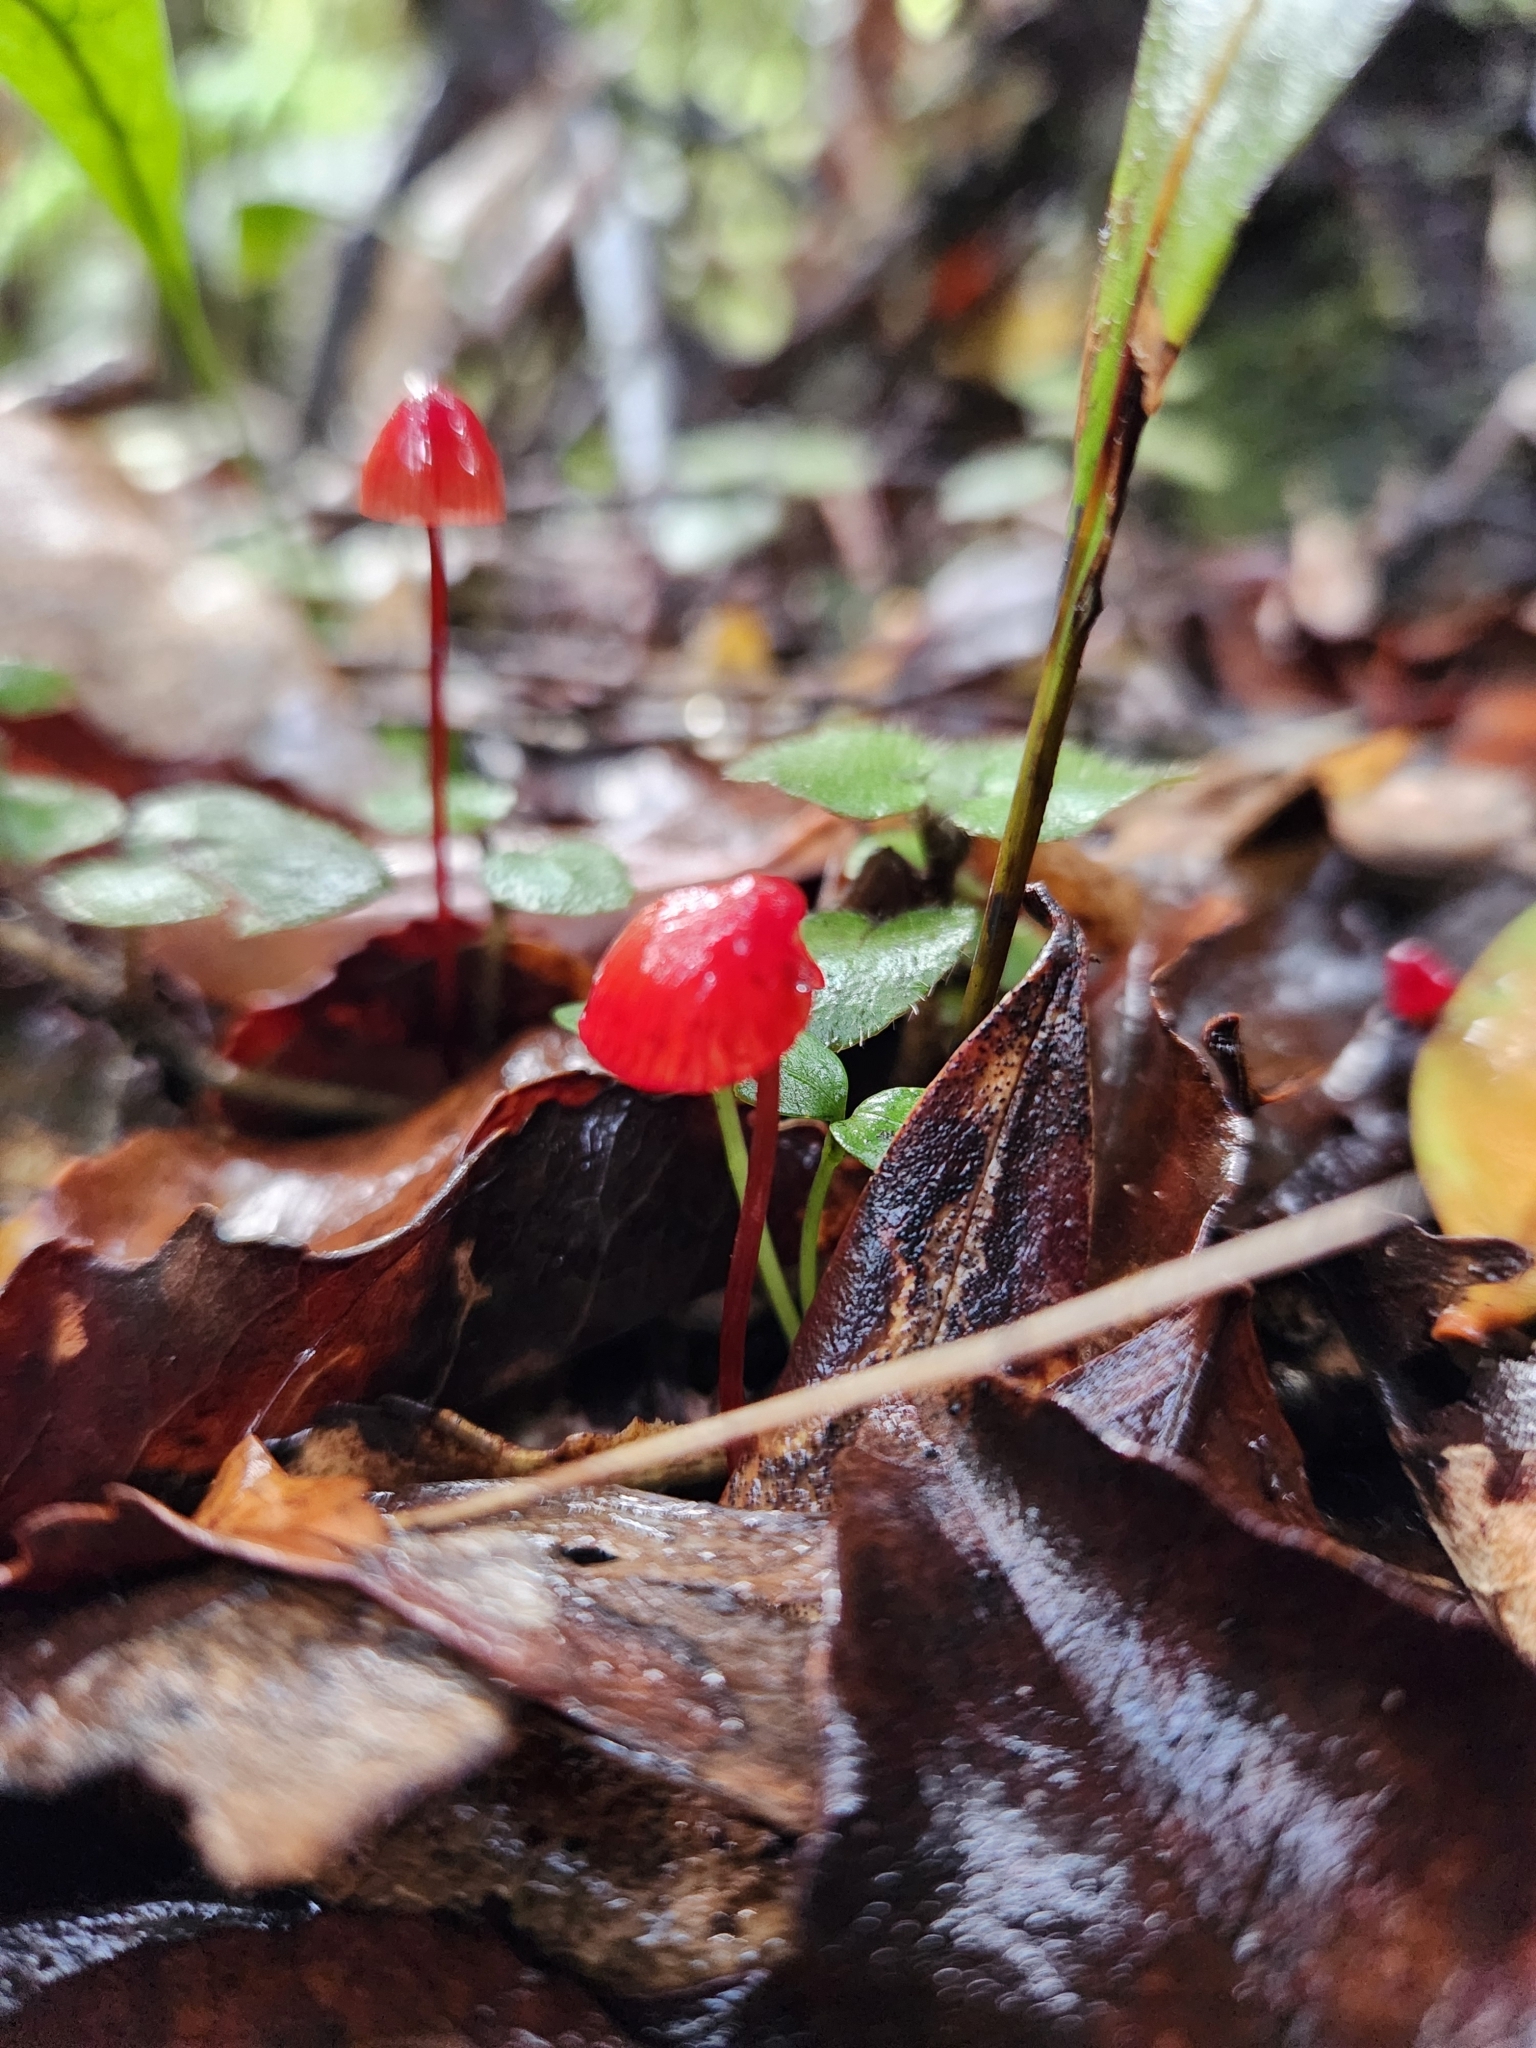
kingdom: Fungi
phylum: Basidiomycota
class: Agaricomycetes
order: Agaricales
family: Mycenaceae
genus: Mycena
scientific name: Mycena ura
